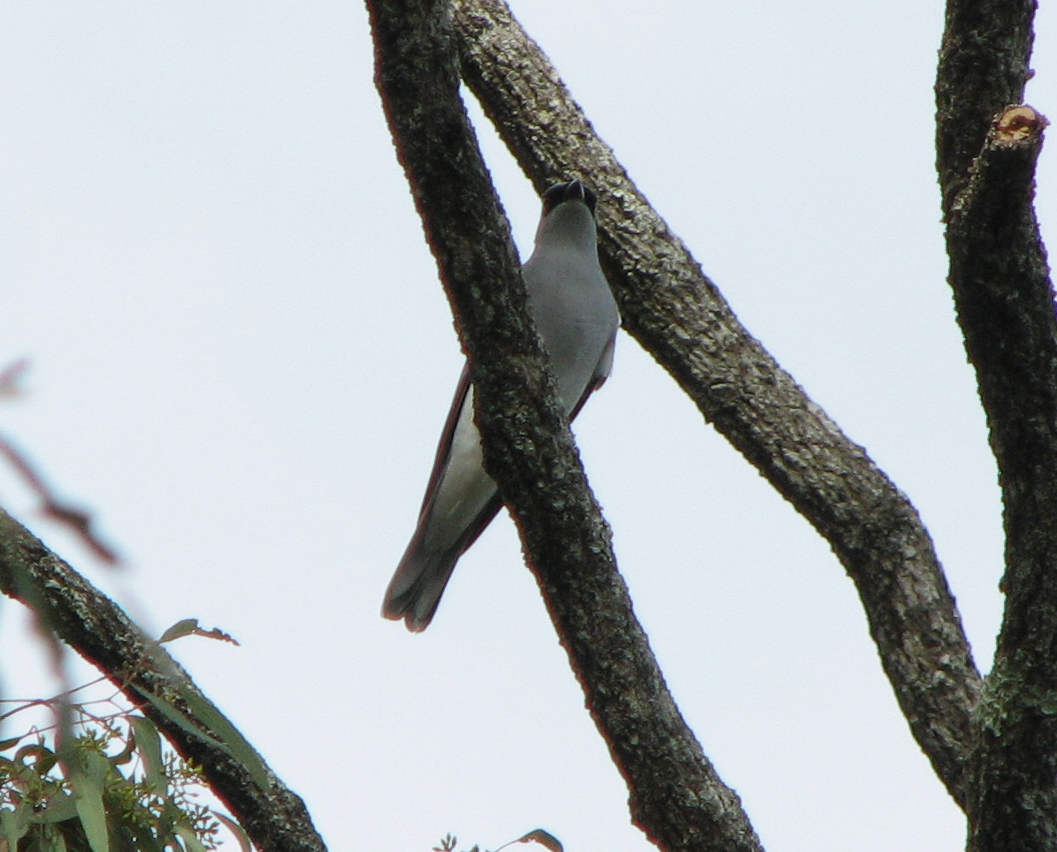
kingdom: Animalia
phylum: Chordata
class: Aves
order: Passeriformes
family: Campephagidae
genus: Coracina
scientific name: Coracina papuensis
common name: White-bellied cuckooshrike
